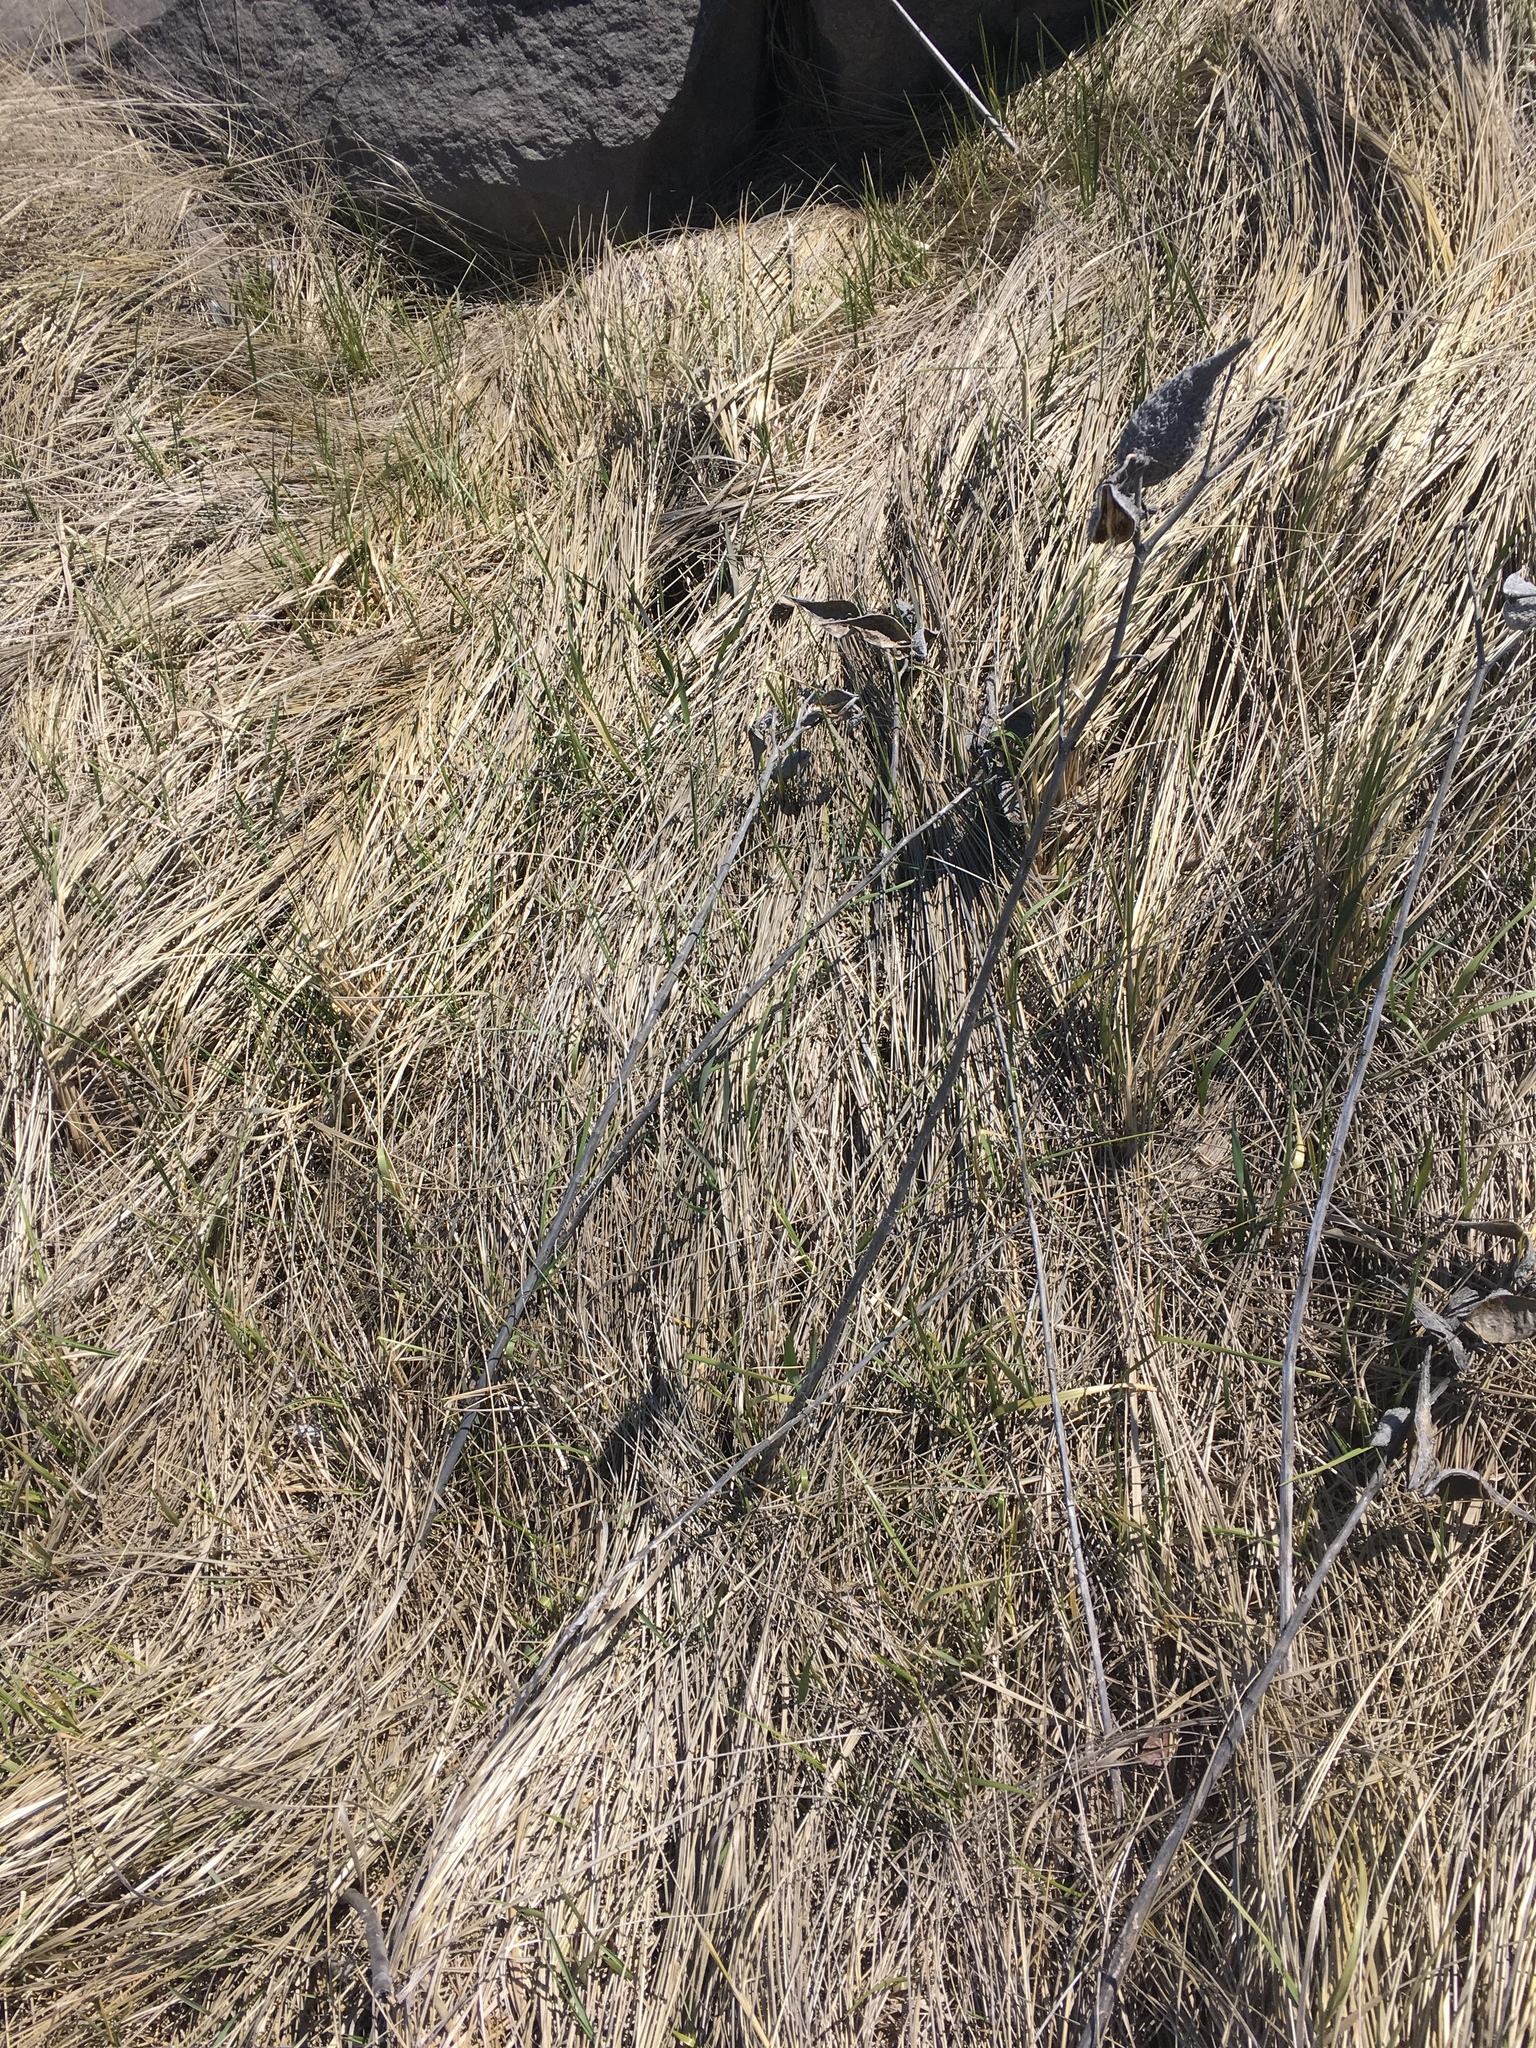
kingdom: Plantae
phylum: Tracheophyta
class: Magnoliopsida
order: Gentianales
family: Apocynaceae
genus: Asclepias
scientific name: Asclepias syriaca
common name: Common milkweed
